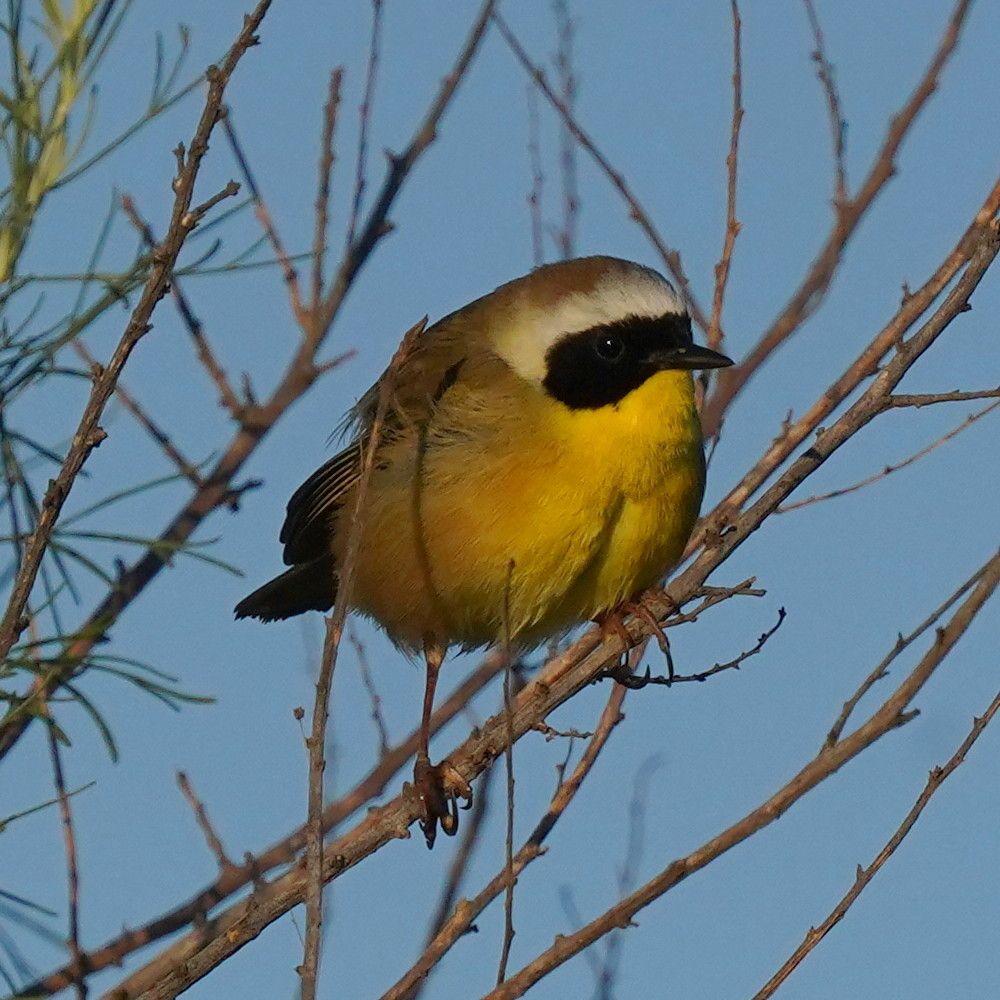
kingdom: Animalia
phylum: Chordata
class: Aves
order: Passeriformes
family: Parulidae
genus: Geothlypis
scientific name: Geothlypis trichas
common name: Common yellowthroat
